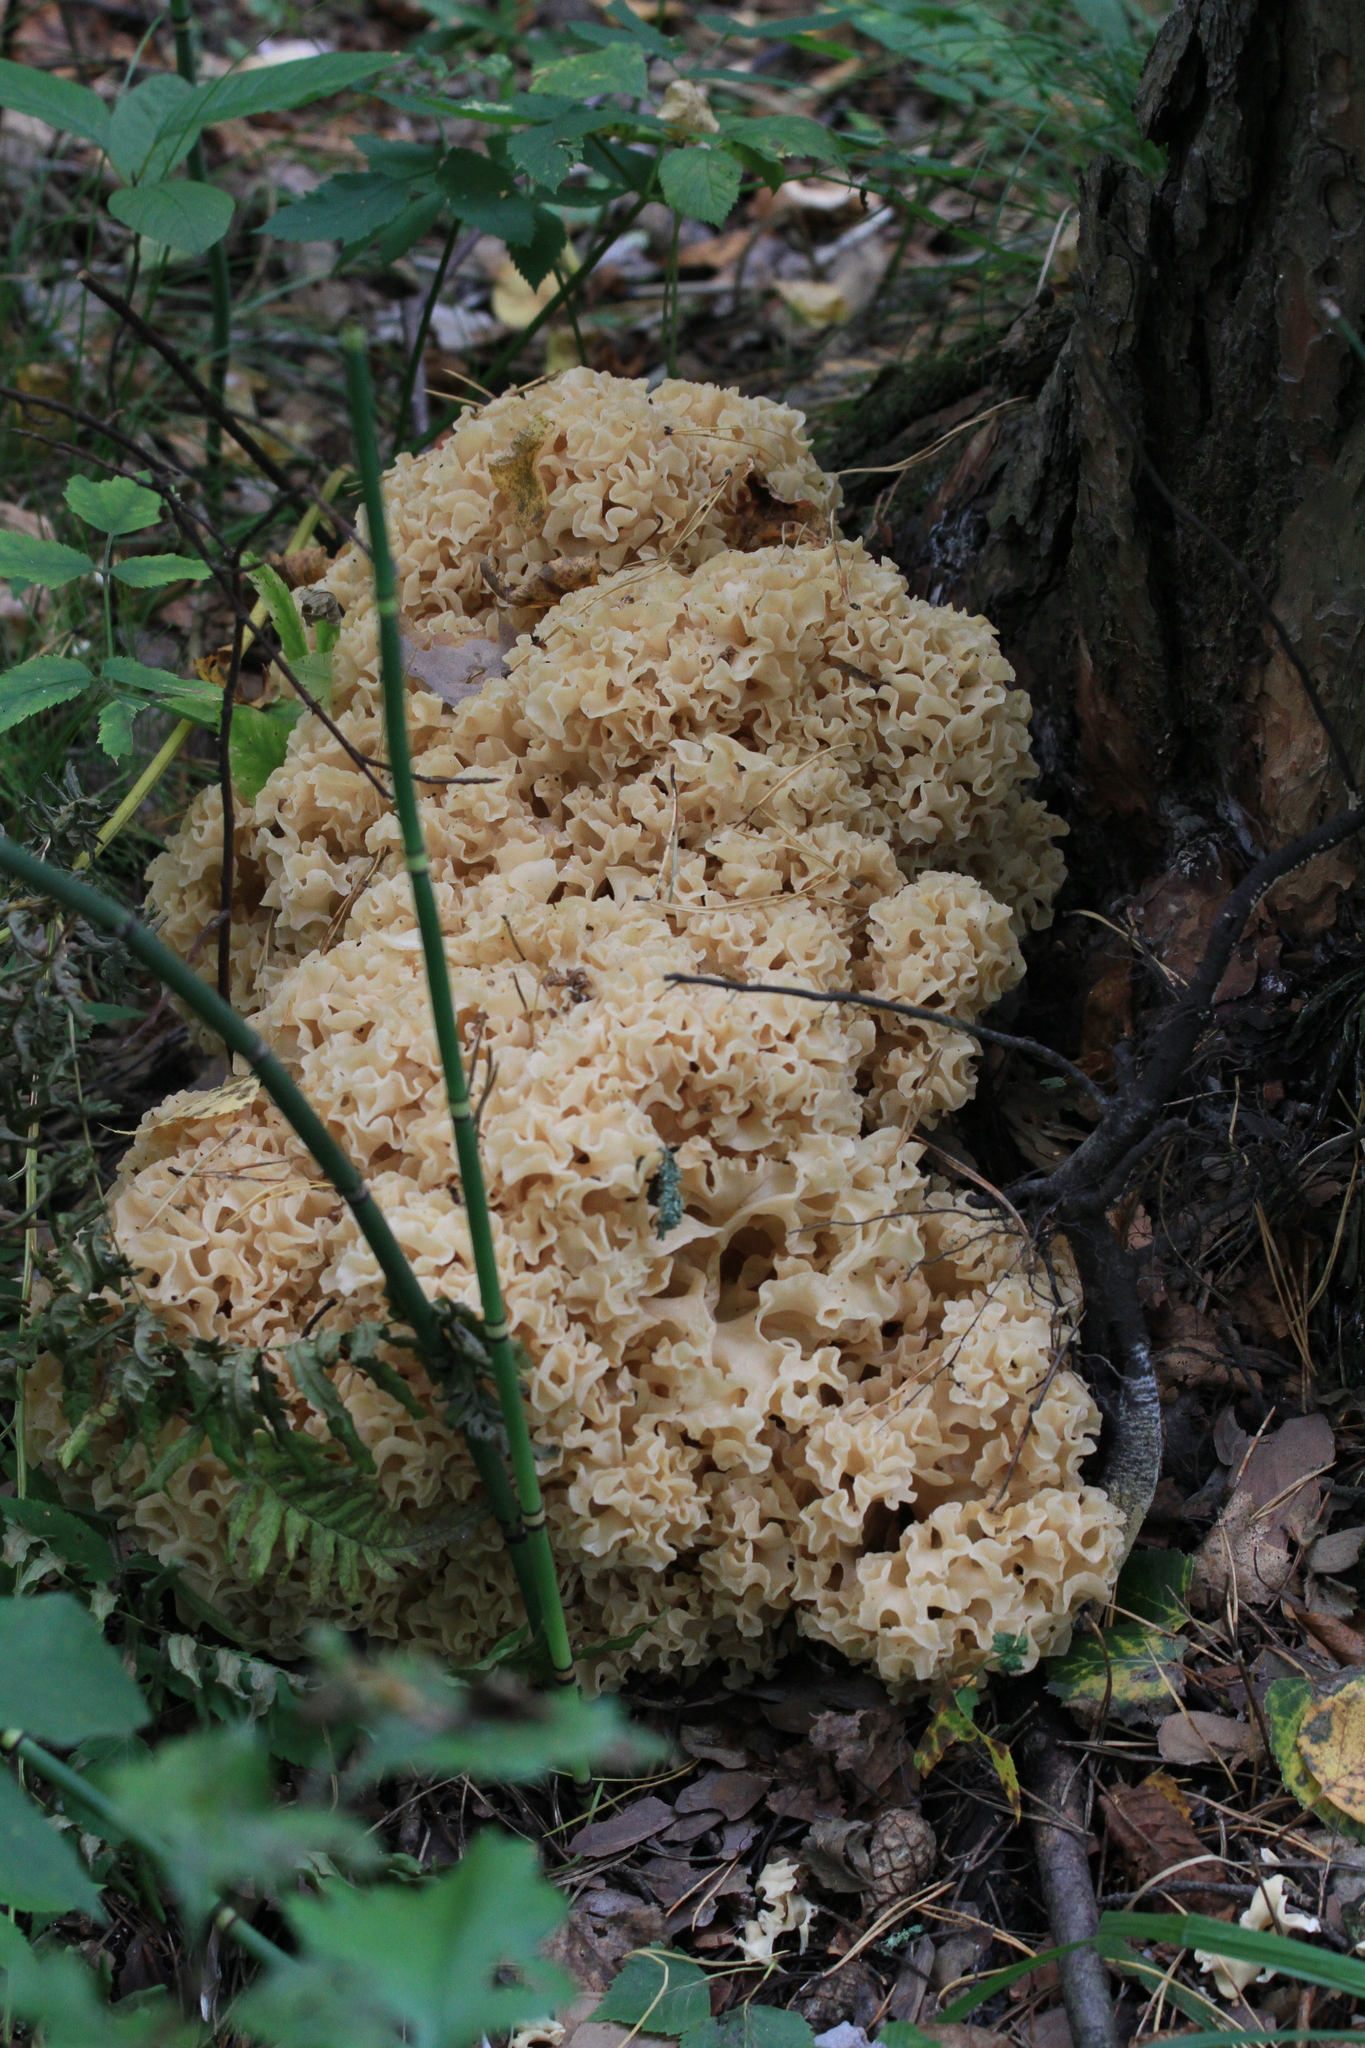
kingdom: Fungi
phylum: Basidiomycota
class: Agaricomycetes
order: Polyporales
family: Sparassidaceae
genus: Sparassis
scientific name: Sparassis crispa
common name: Brain fungus
